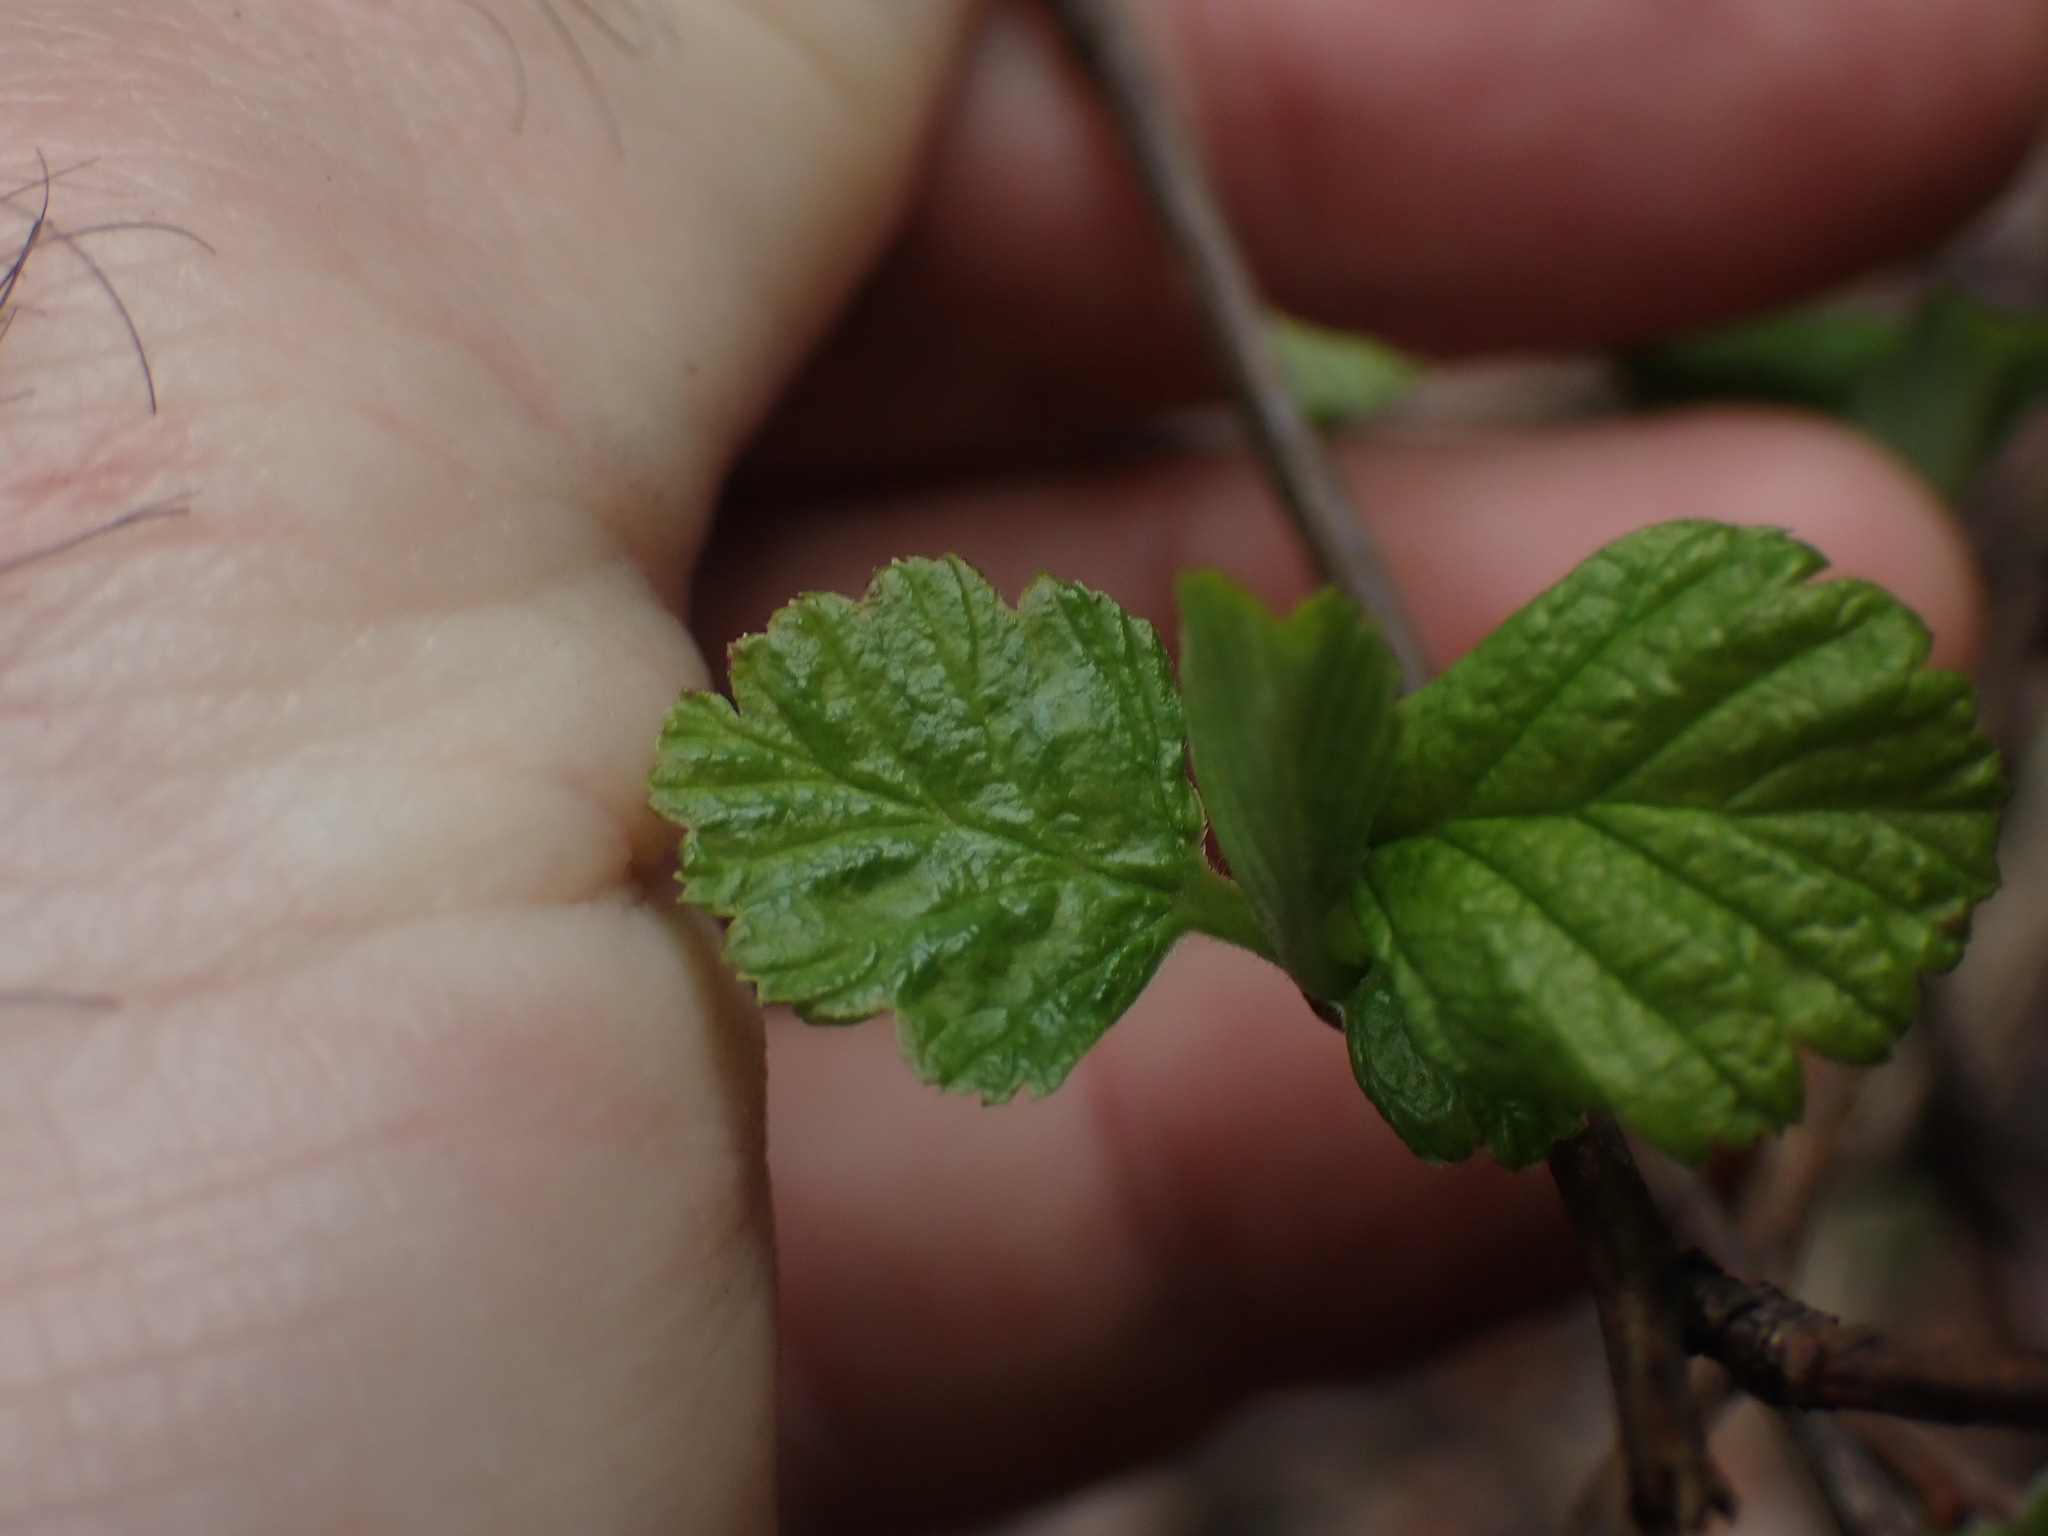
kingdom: Plantae
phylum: Tracheophyta
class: Magnoliopsida
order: Rosales
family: Rosaceae
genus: Holodiscus
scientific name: Holodiscus discolor
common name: Oceanspray
